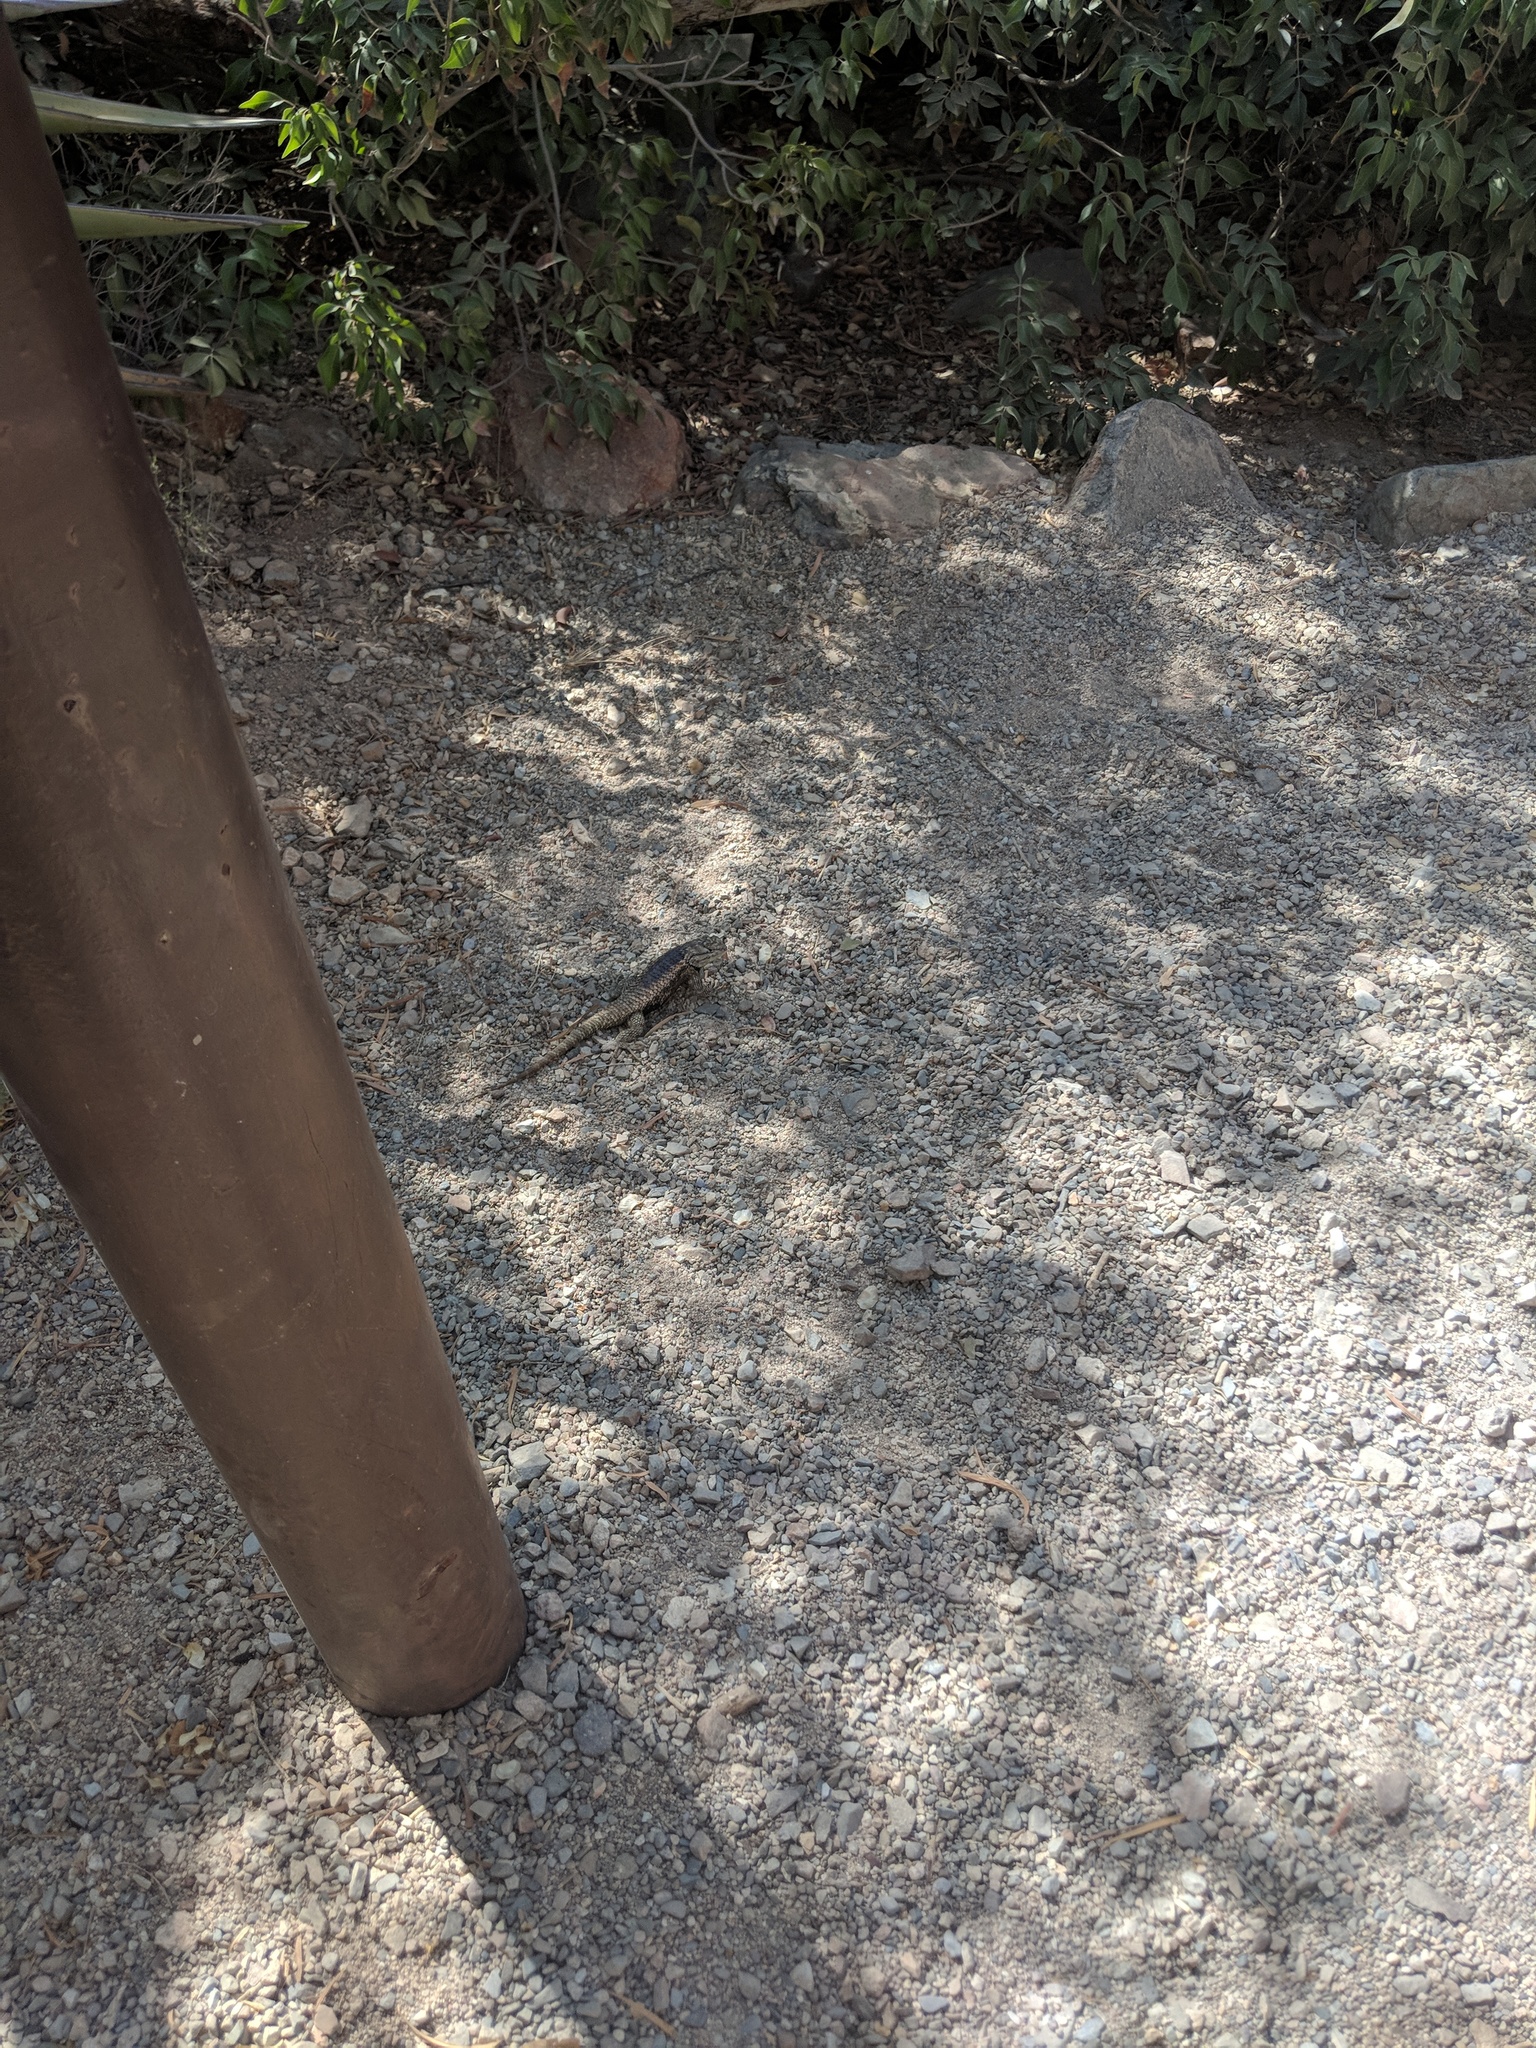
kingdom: Animalia
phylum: Chordata
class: Squamata
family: Phrynosomatidae
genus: Sceloporus
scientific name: Sceloporus magister
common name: Desert spiny lizard
